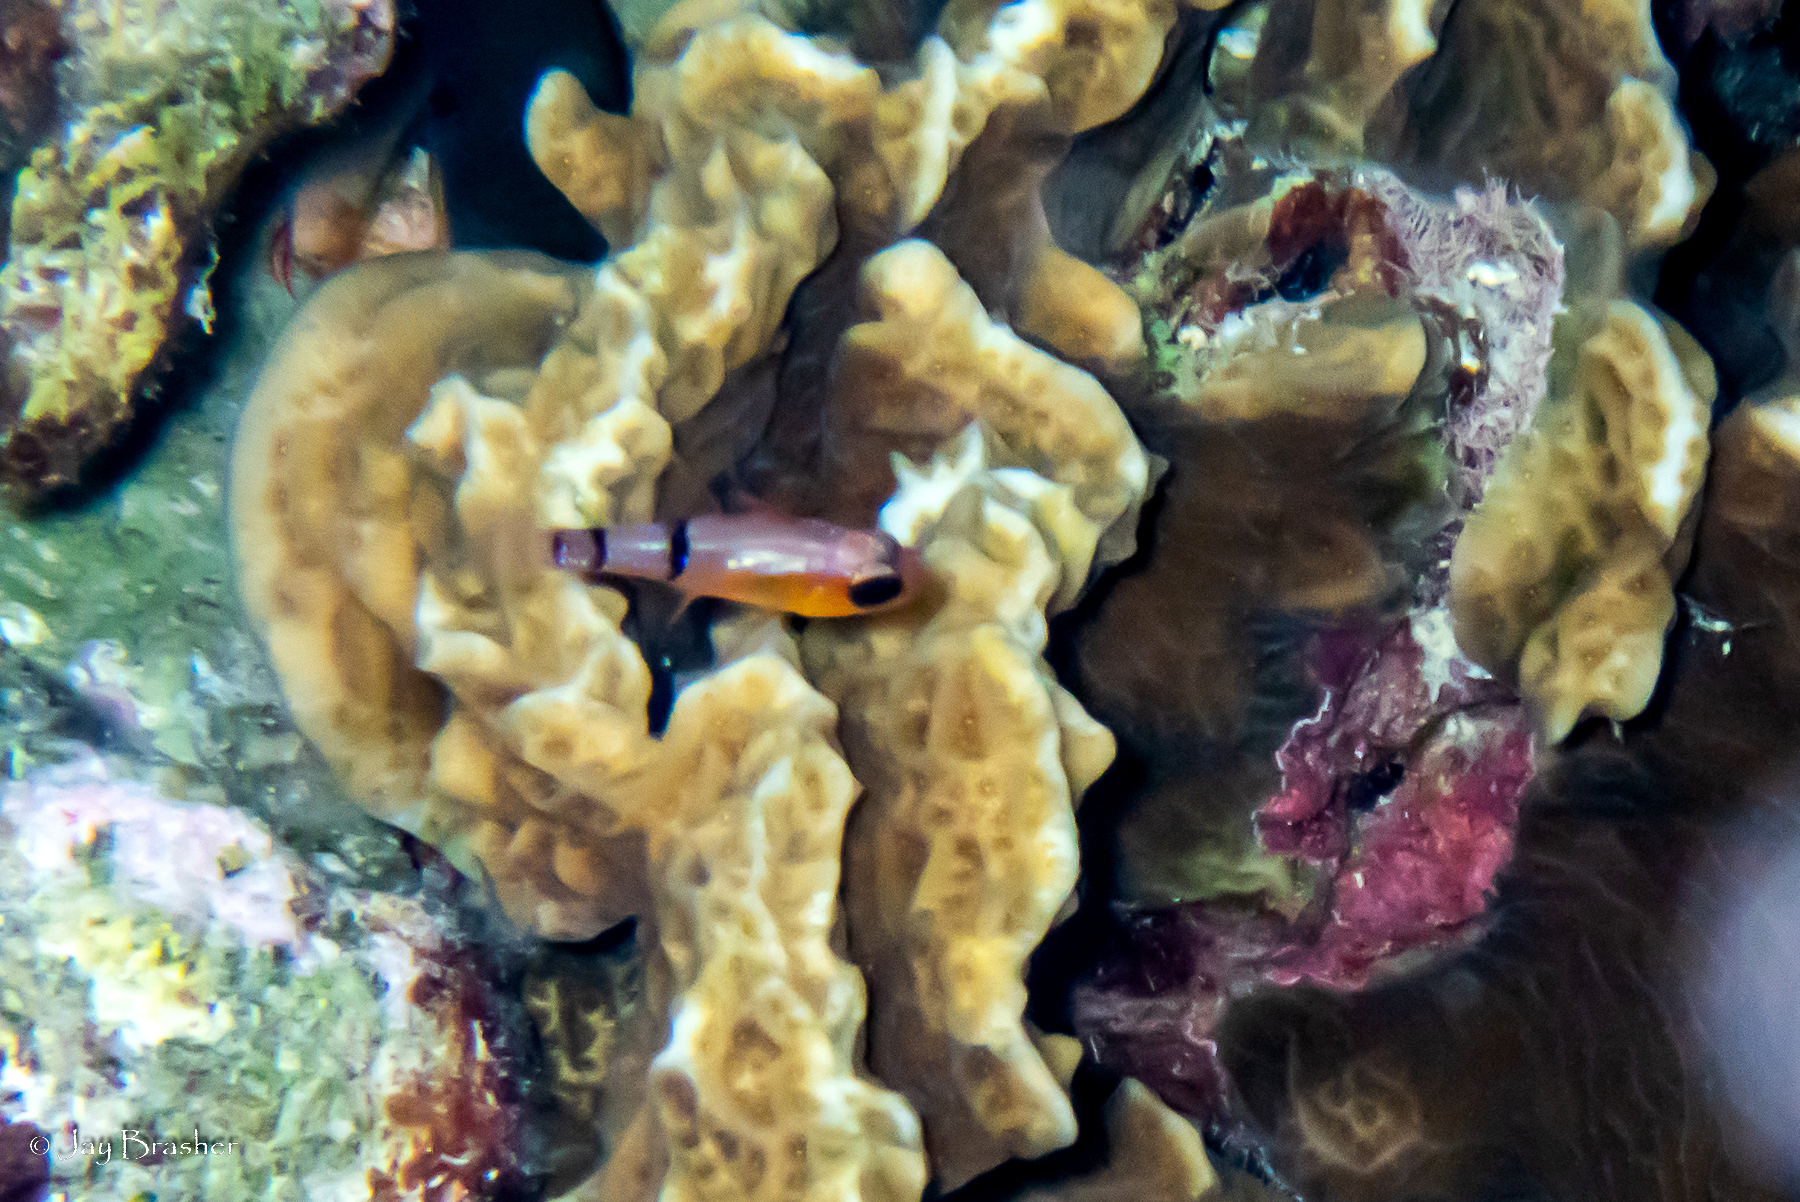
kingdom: Animalia
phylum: Chordata
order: Perciformes
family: Apogonidae
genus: Apogon
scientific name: Apogon townsendi
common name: Belted cardinalfish
